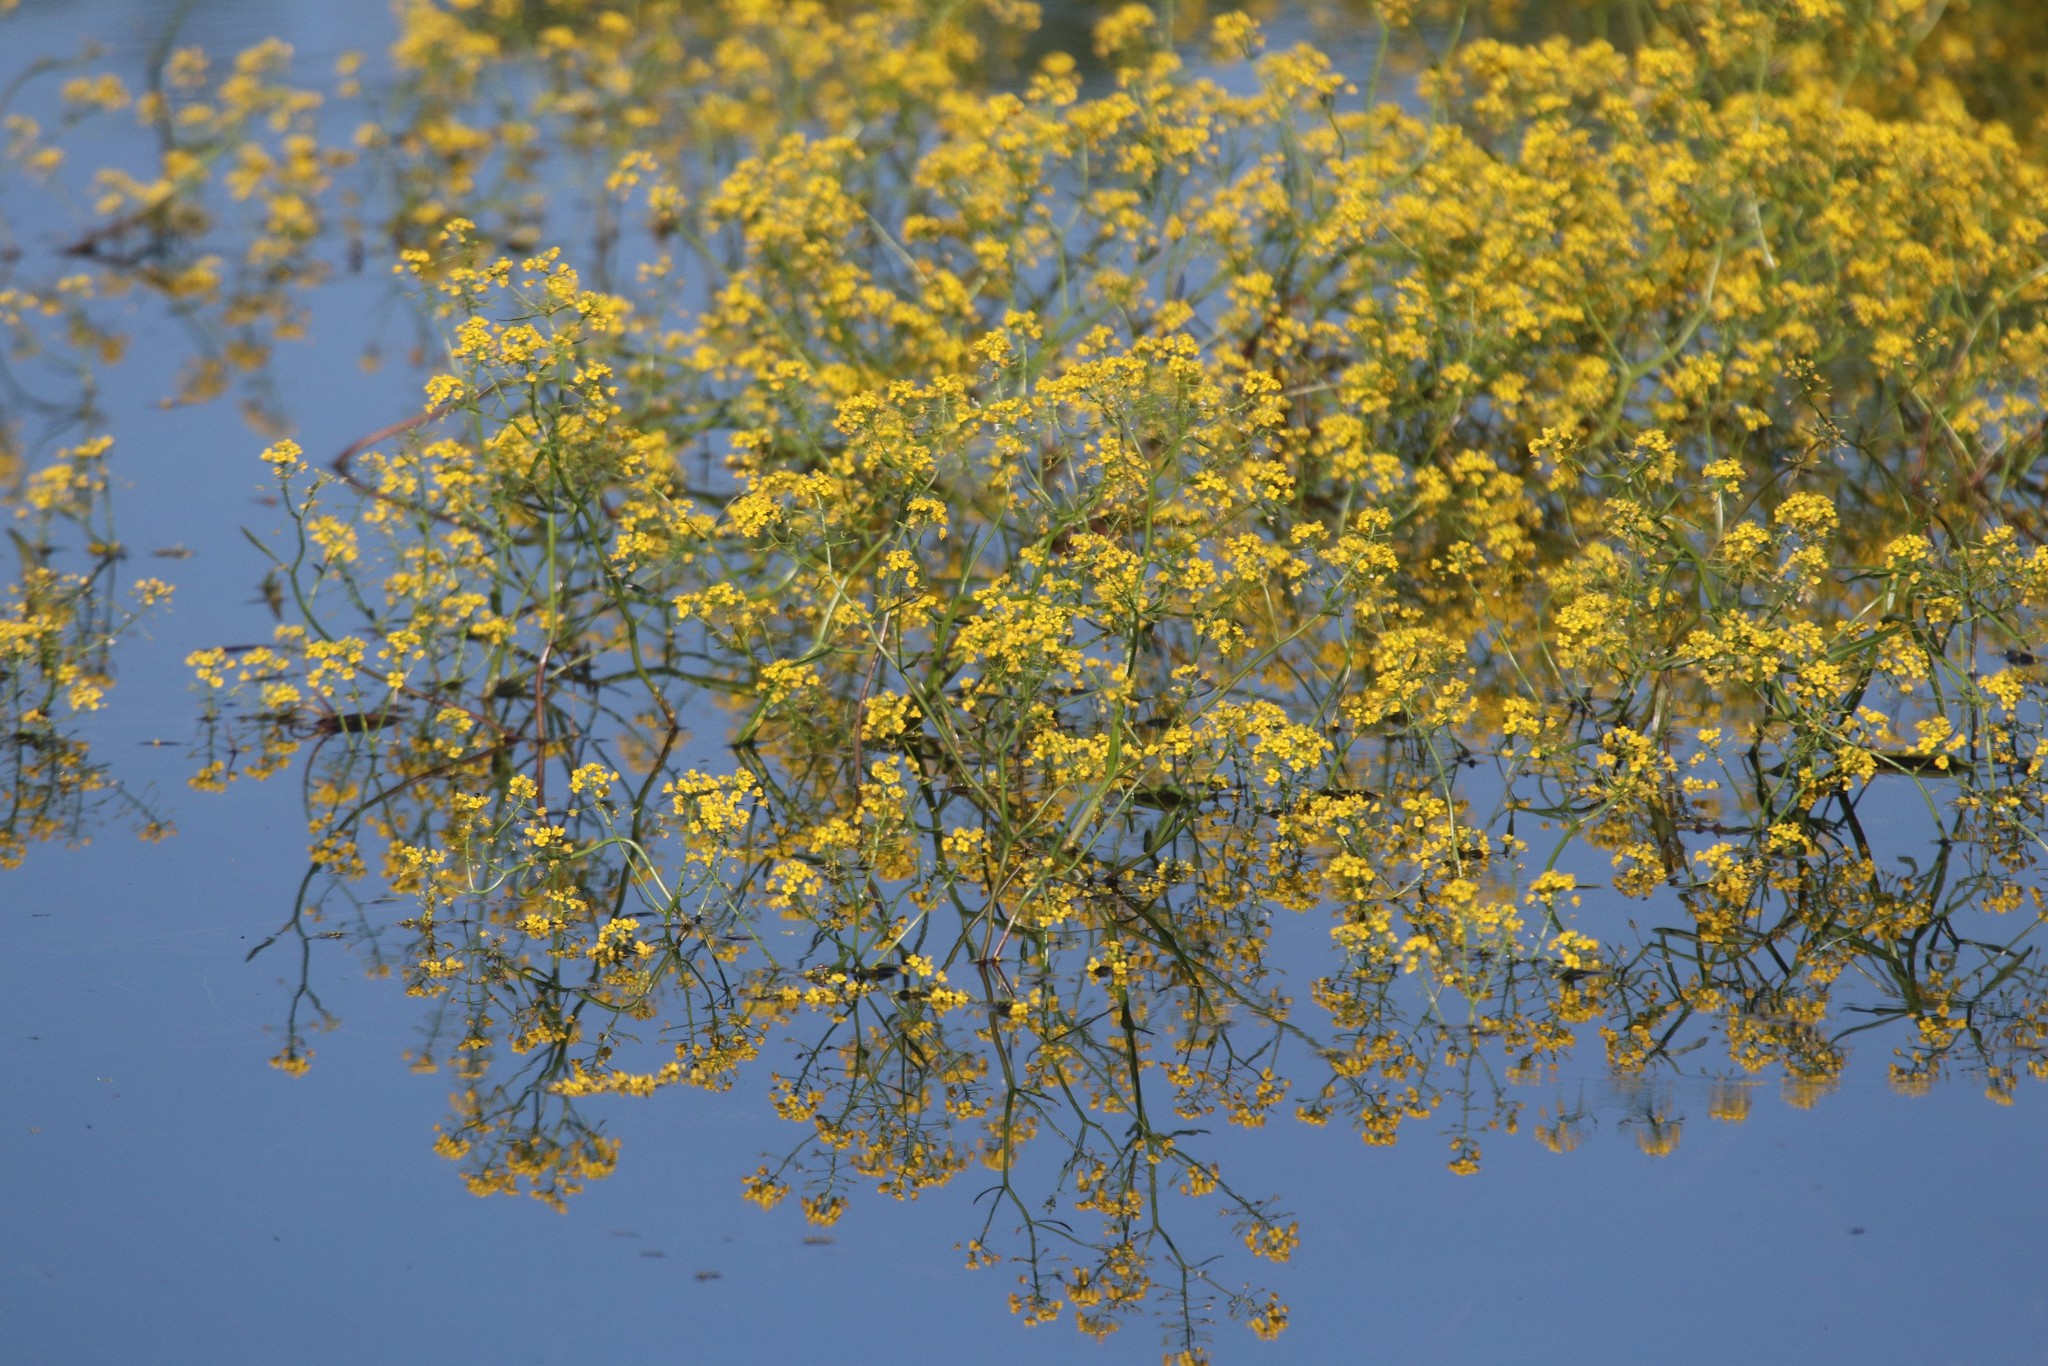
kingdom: Plantae
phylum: Tracheophyta
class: Magnoliopsida
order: Brassicales
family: Brassicaceae
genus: Rorippa
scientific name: Rorippa amphibia
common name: Great yellow-cress
